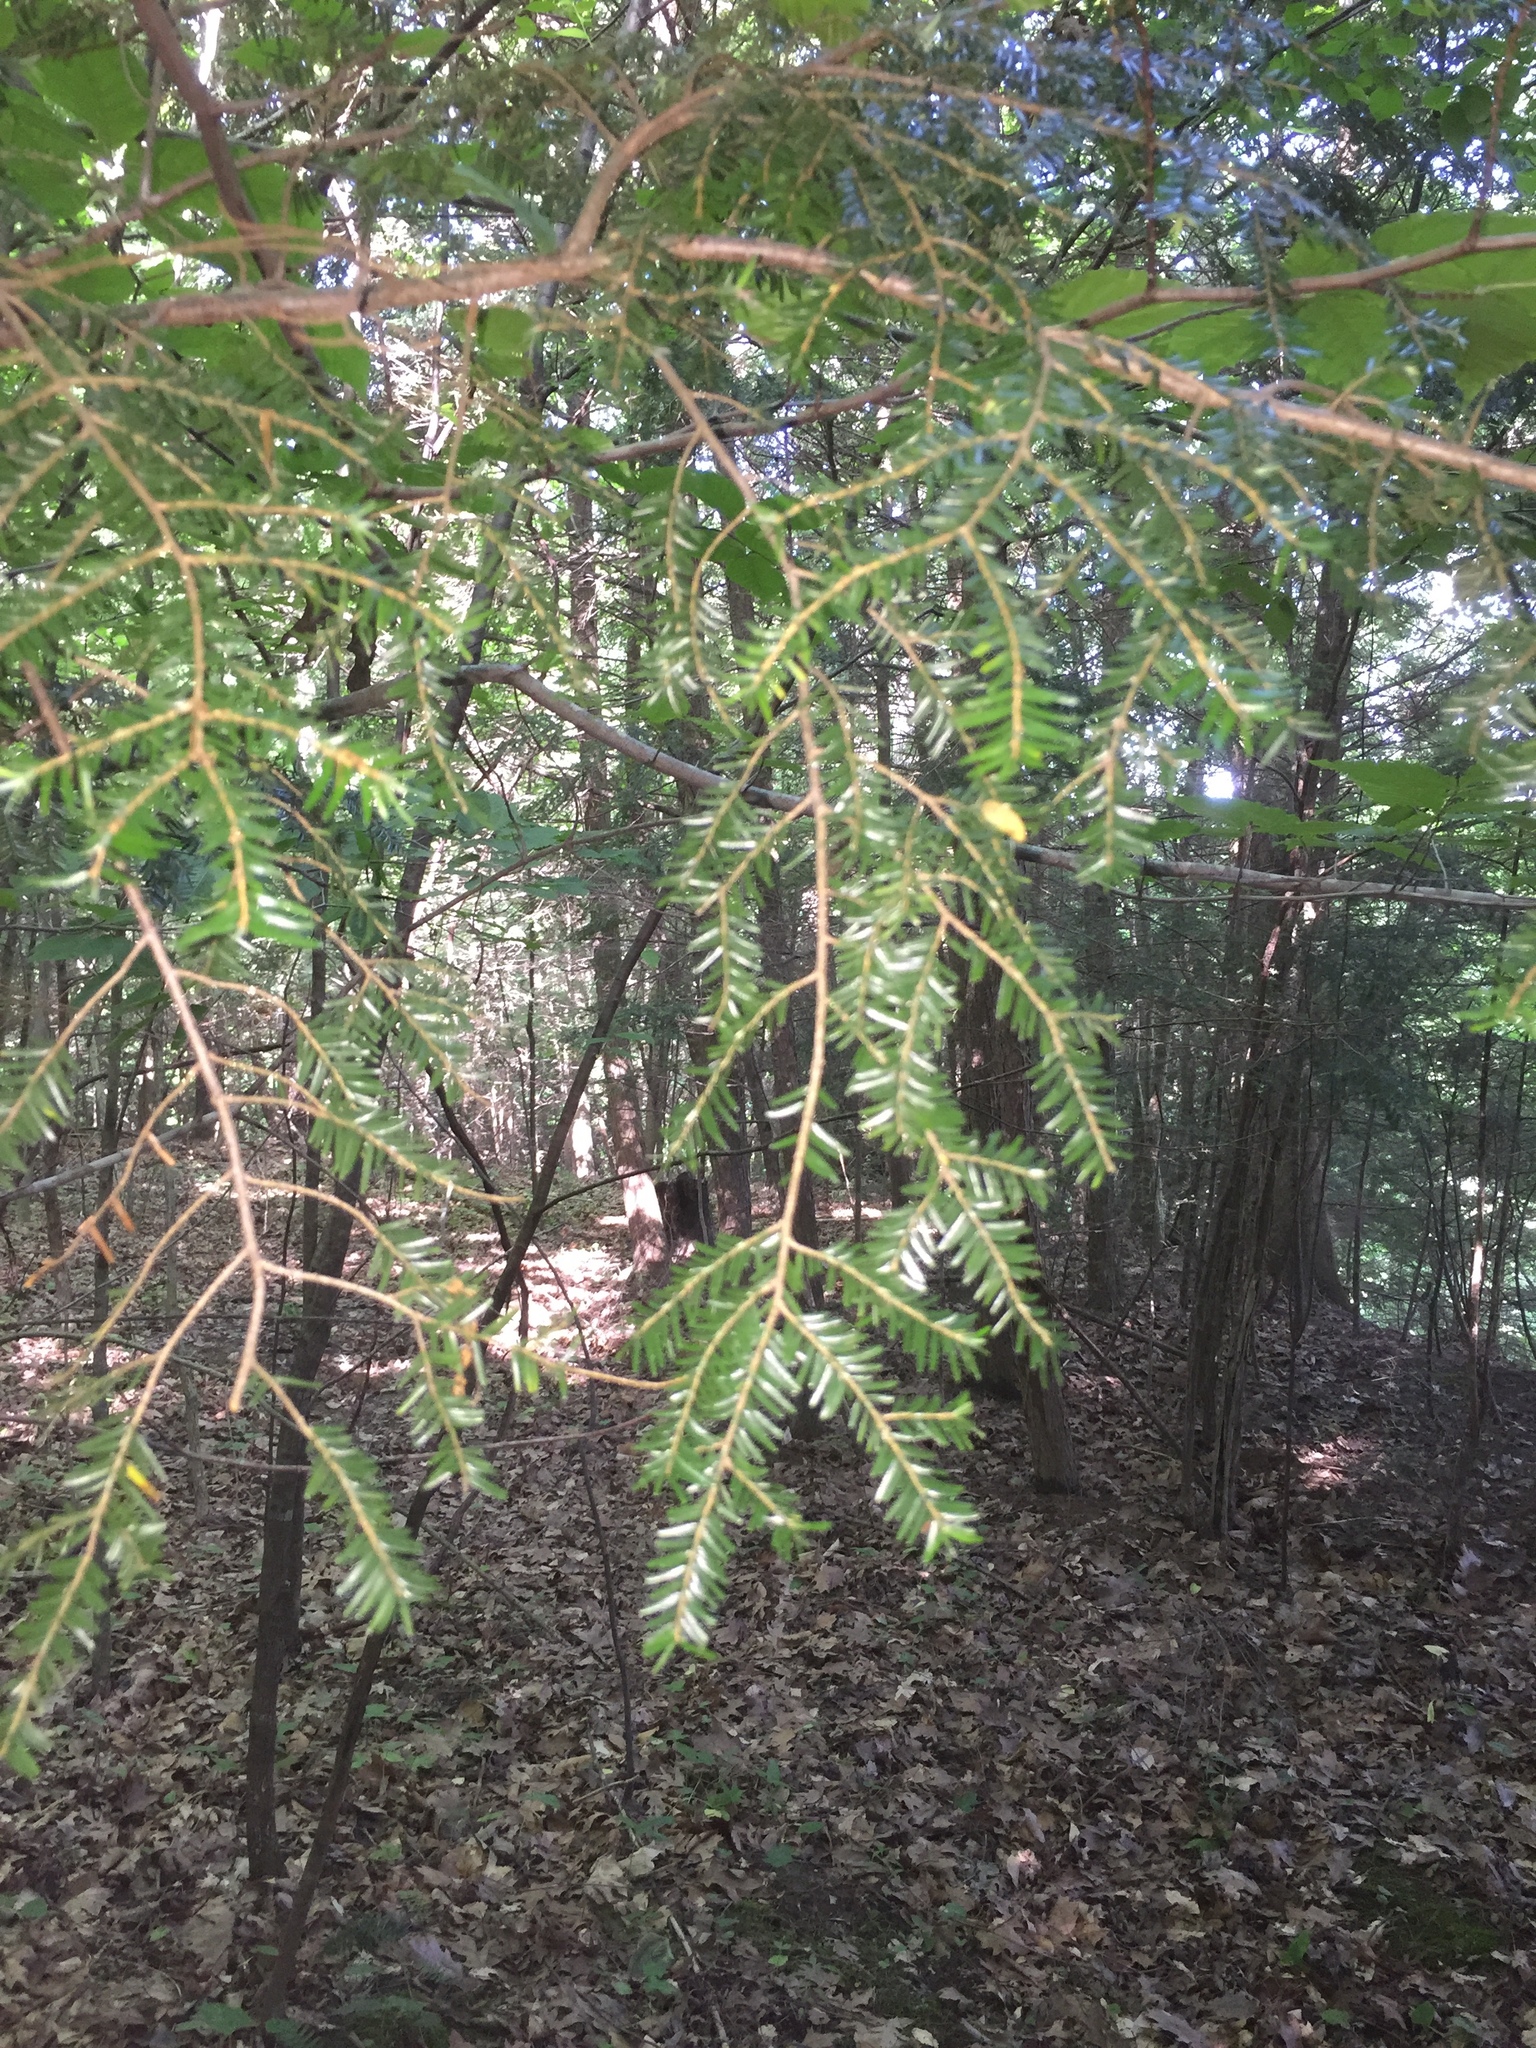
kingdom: Plantae
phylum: Tracheophyta
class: Pinopsida
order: Pinales
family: Pinaceae
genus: Tsuga
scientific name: Tsuga canadensis
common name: Eastern hemlock
